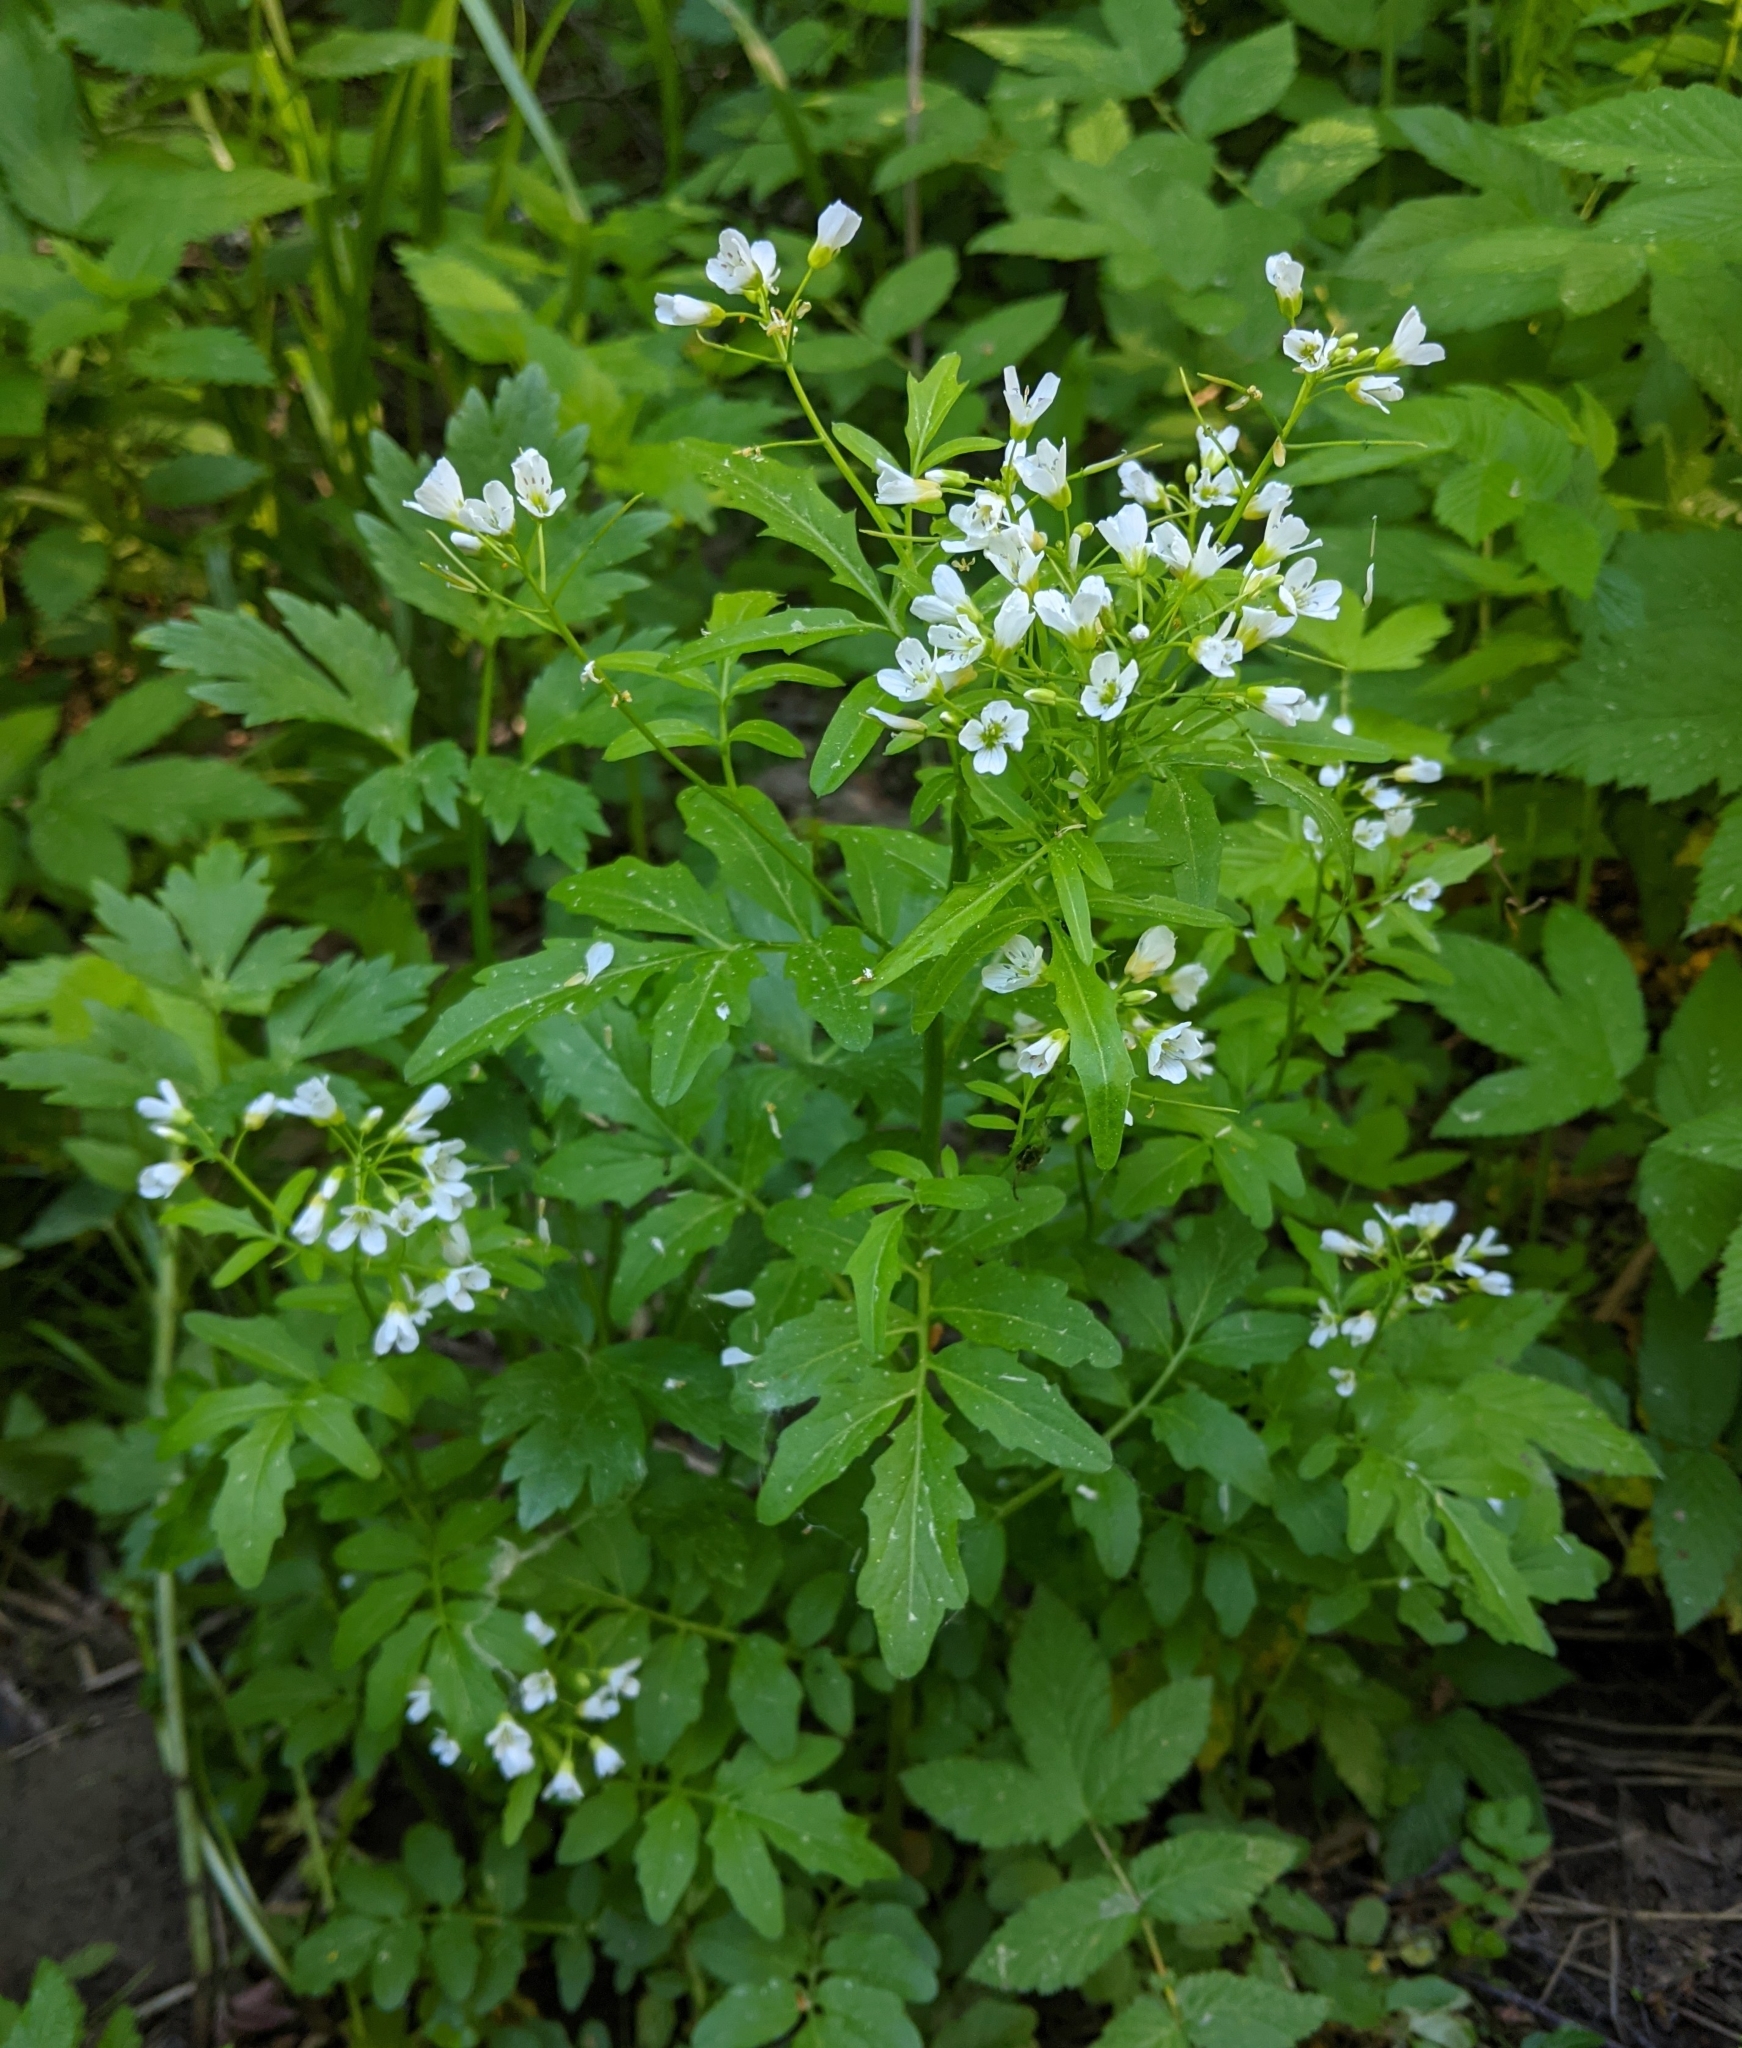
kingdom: Plantae
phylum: Tracheophyta
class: Magnoliopsida
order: Brassicales
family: Brassicaceae
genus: Cardamine
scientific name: Cardamine amara
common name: Large bitter-cress
